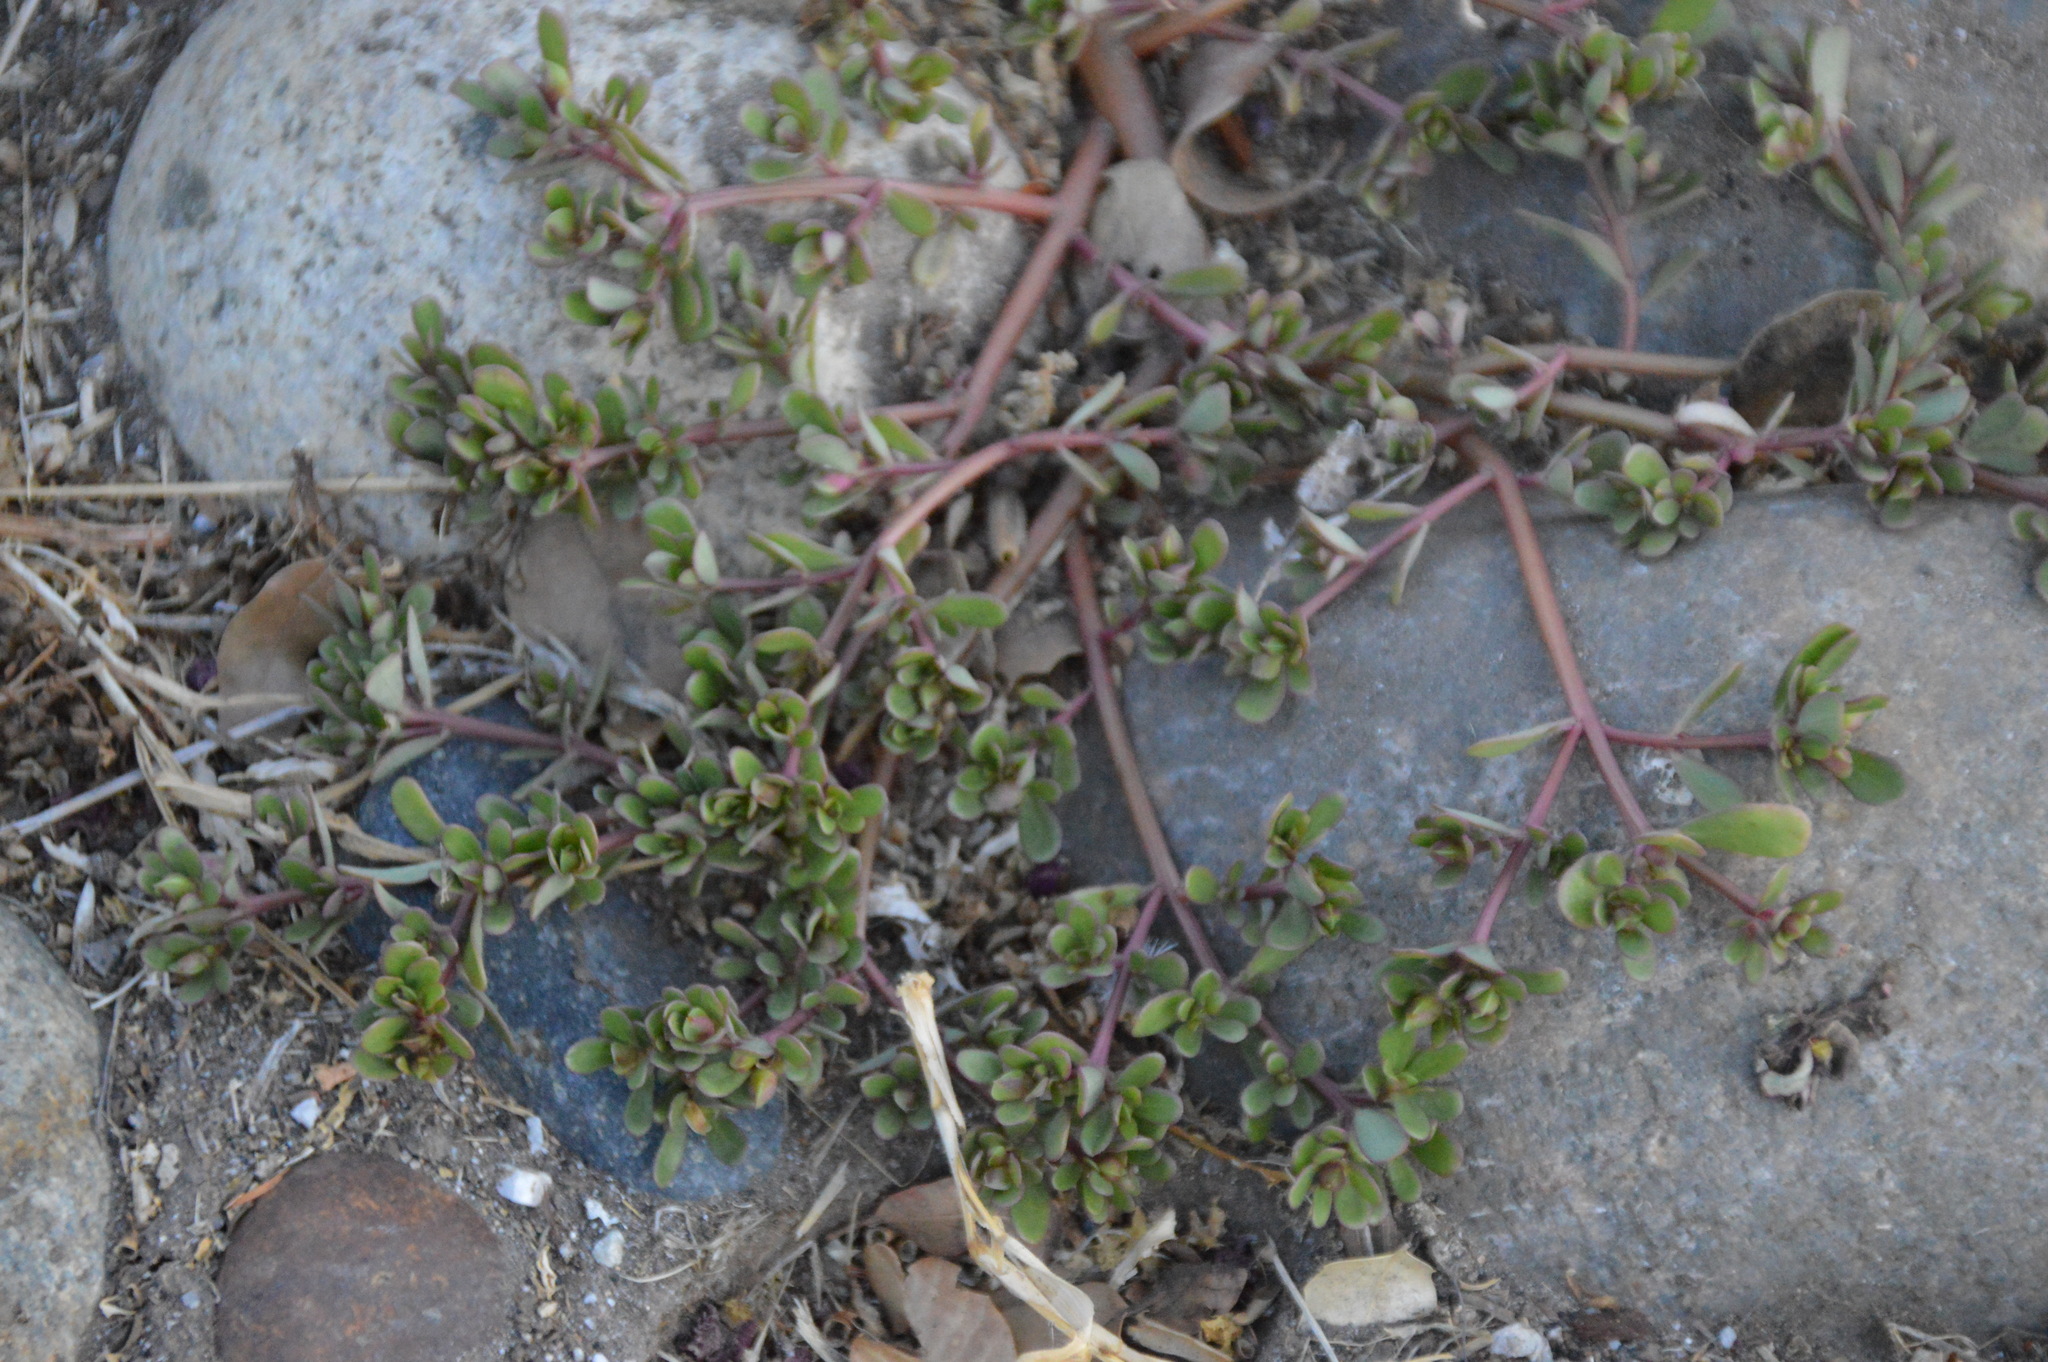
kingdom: Plantae
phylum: Tracheophyta
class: Magnoliopsida
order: Caryophyllales
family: Portulacaceae
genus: Portulaca
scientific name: Portulaca oleracea
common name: Common purslane
